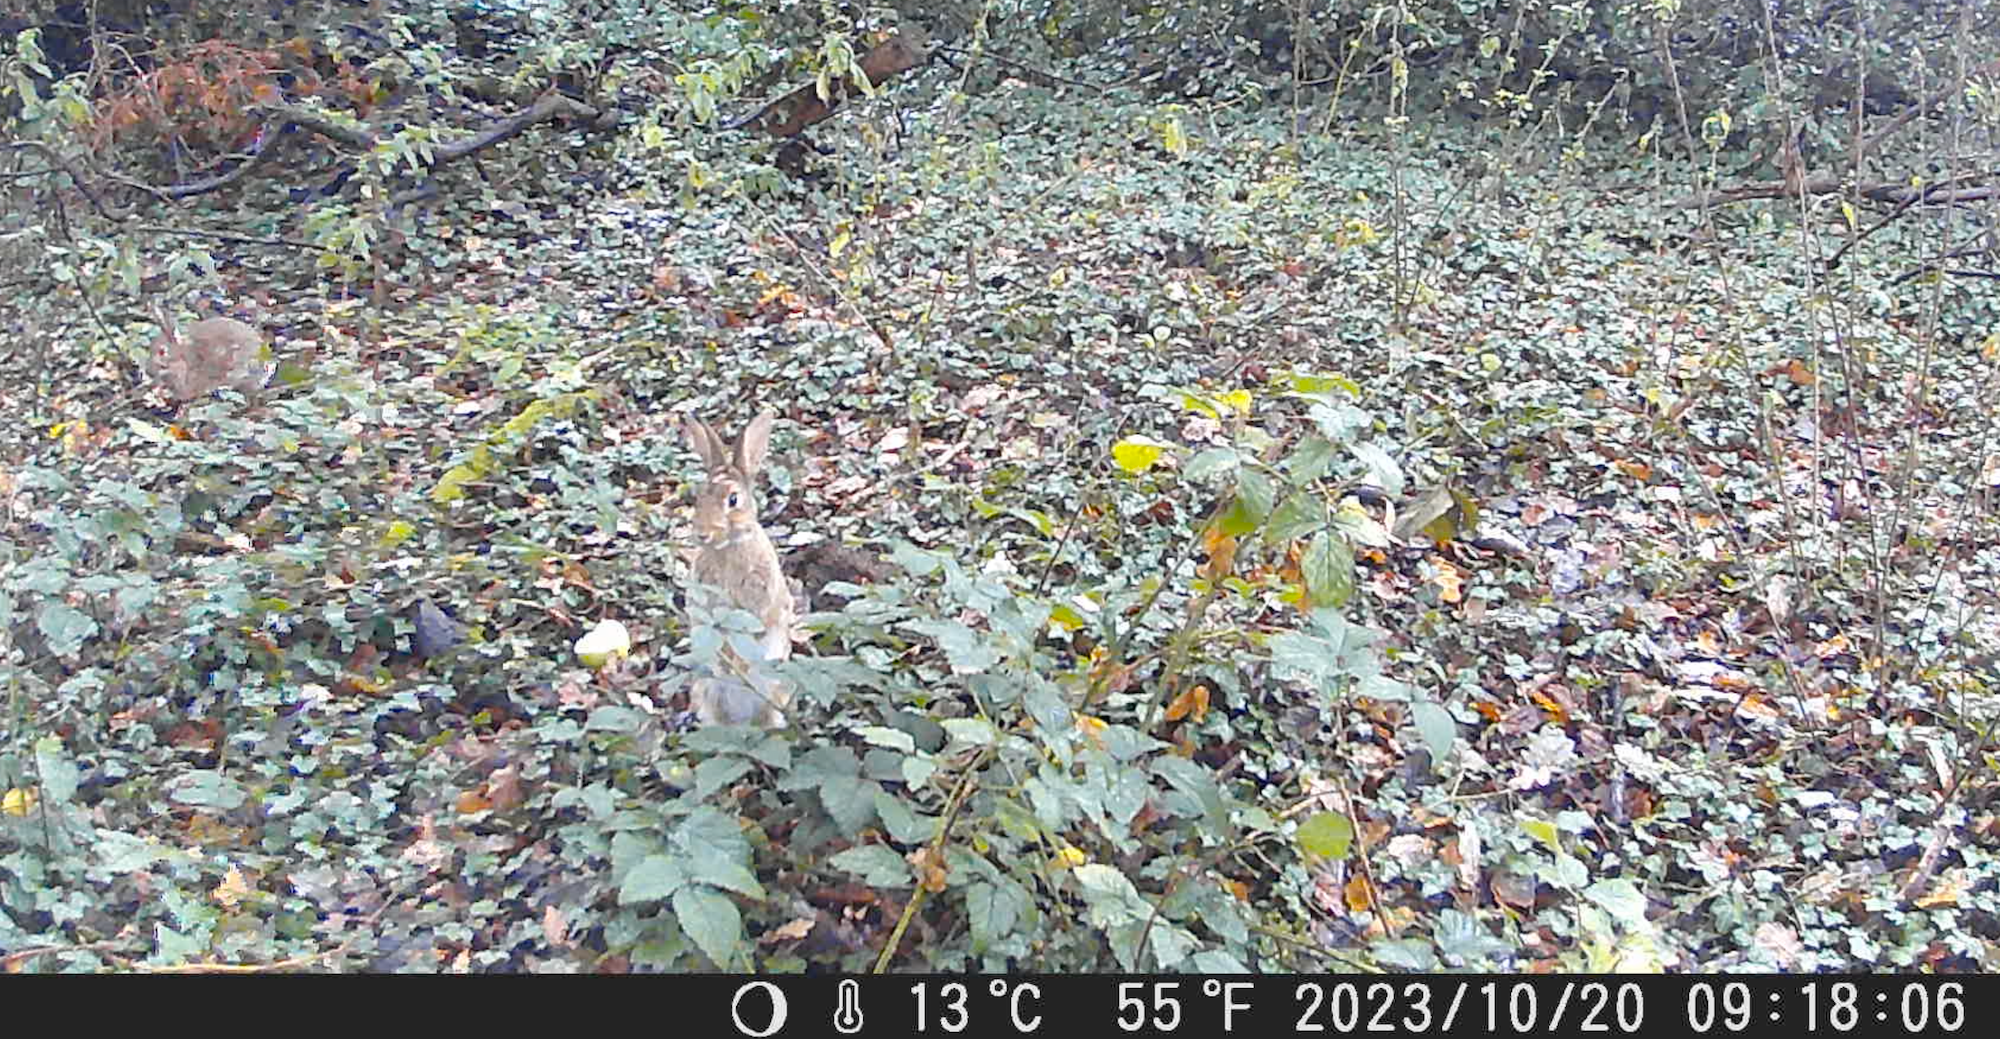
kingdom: Animalia
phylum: Chordata
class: Mammalia
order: Lagomorpha
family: Leporidae
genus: Oryctolagus
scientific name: Oryctolagus cuniculus
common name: European rabbit
